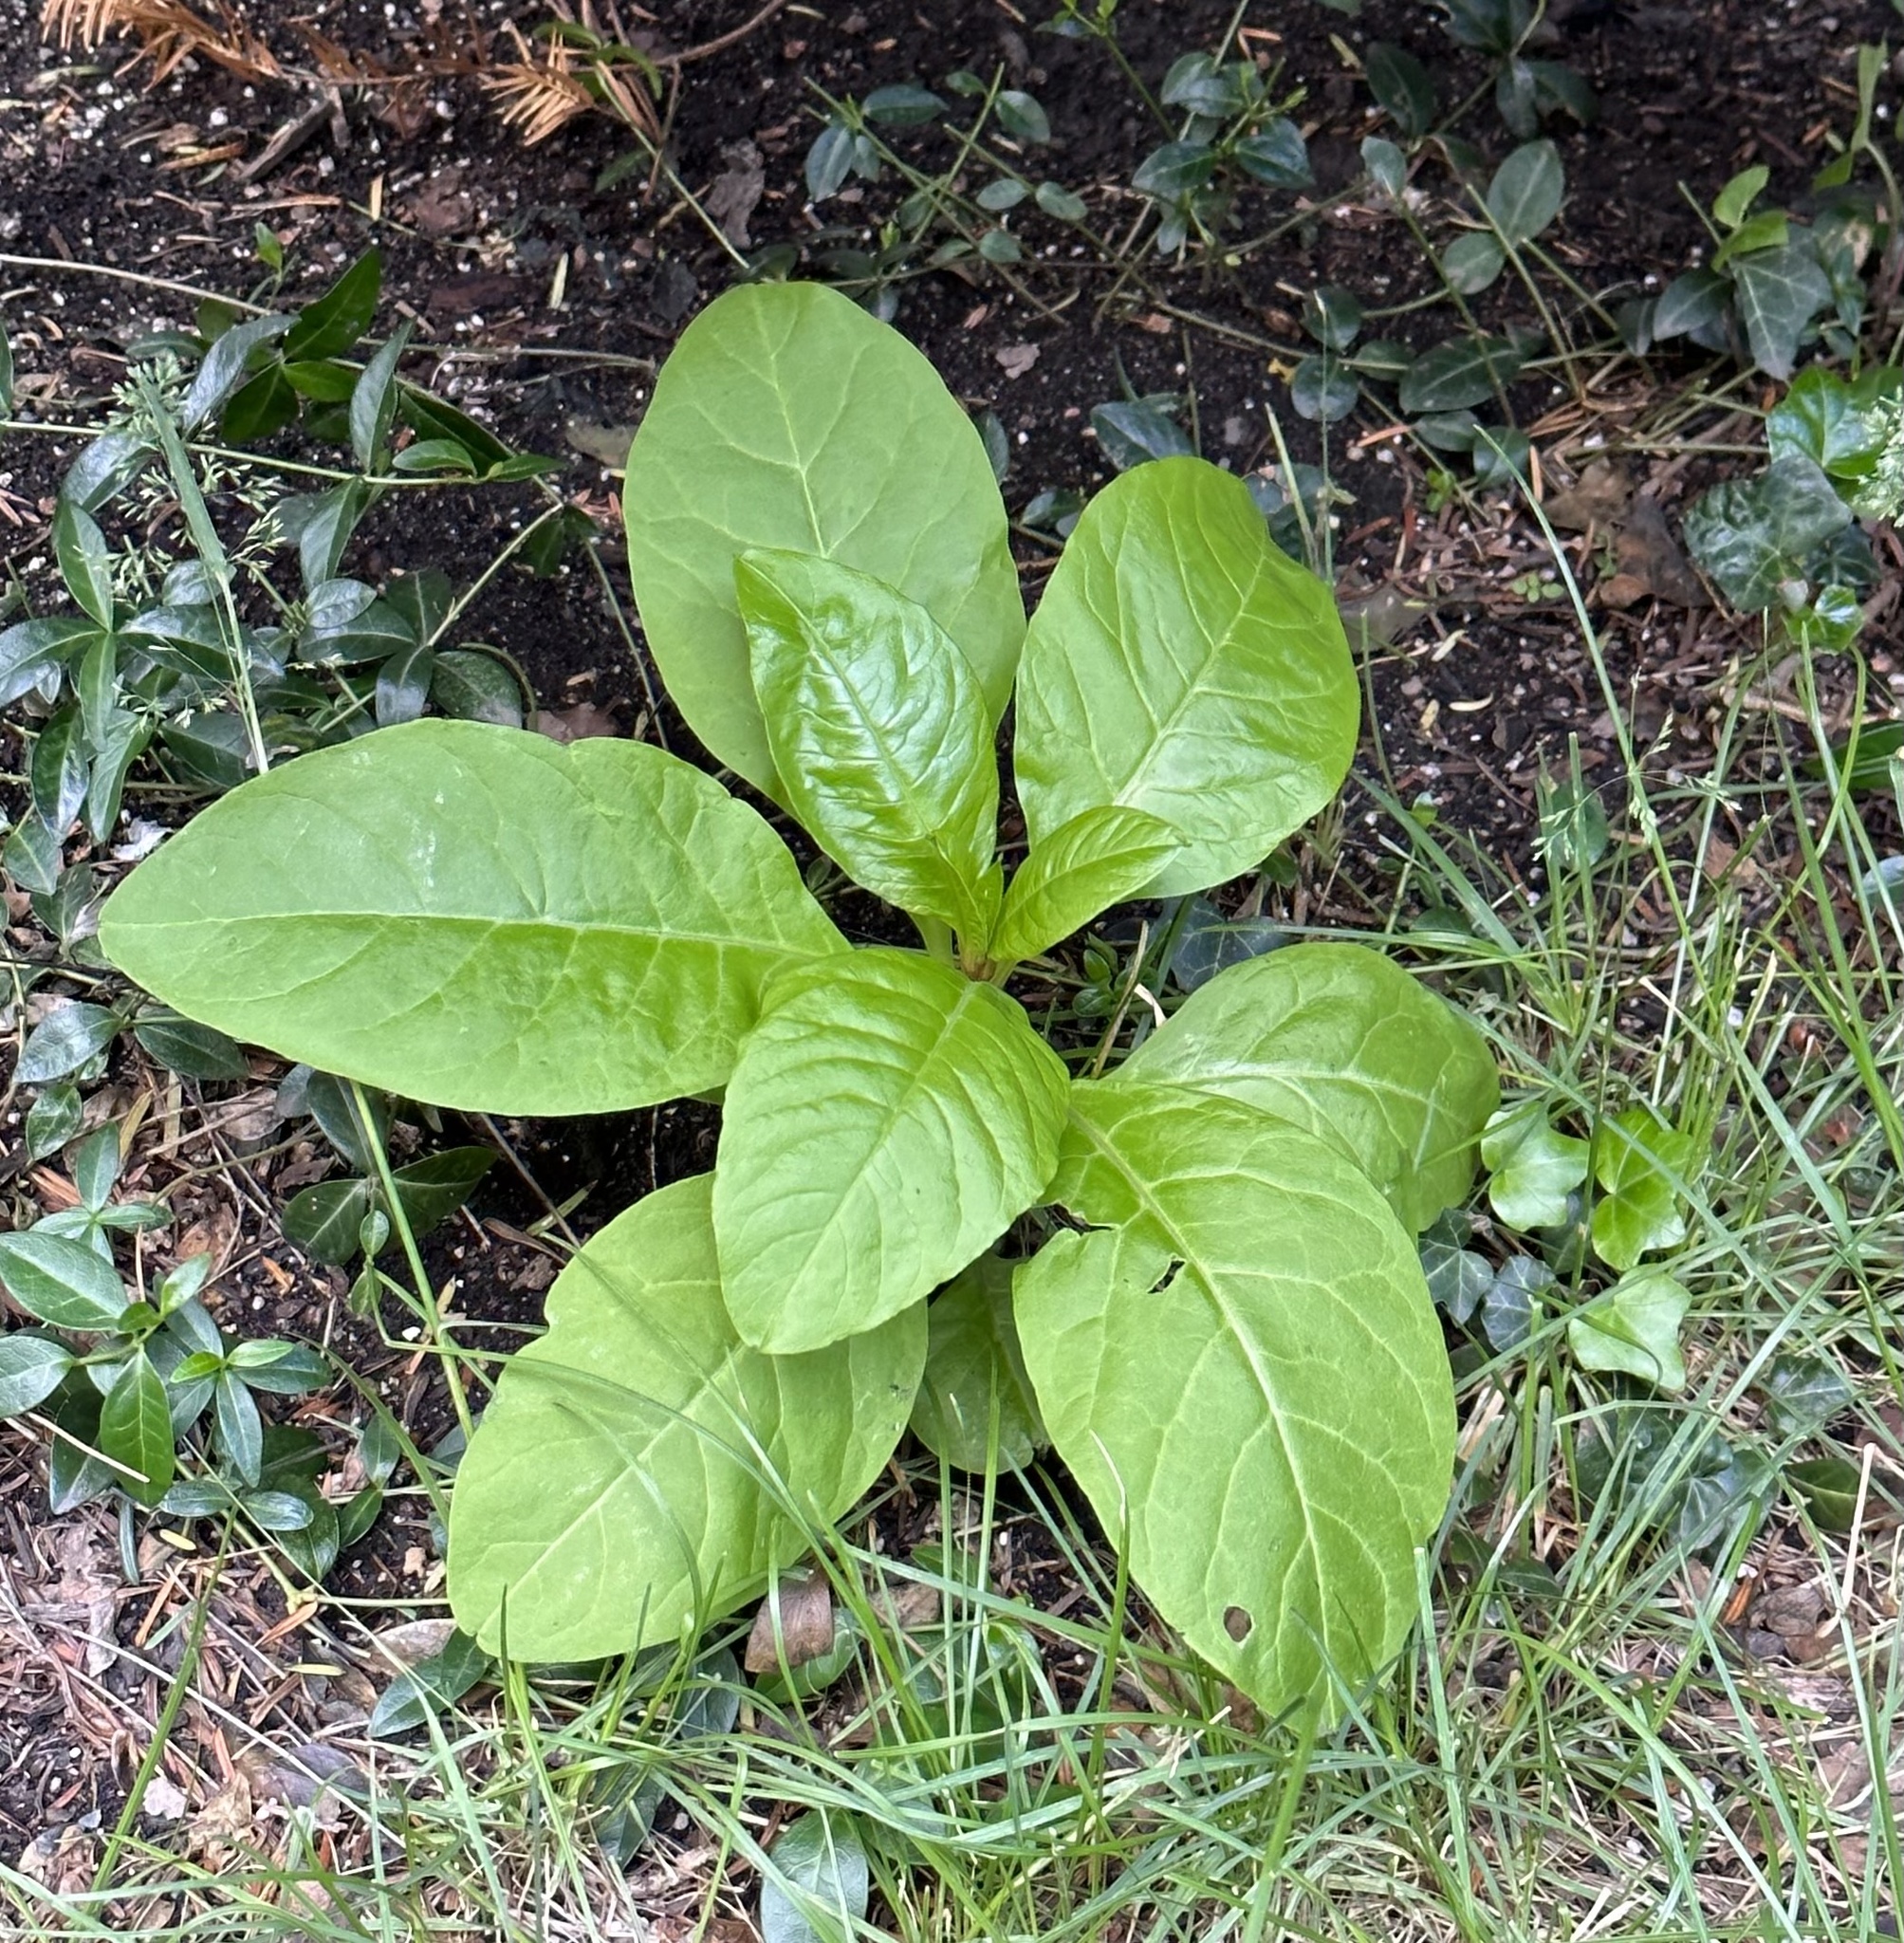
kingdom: Plantae
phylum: Tracheophyta
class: Magnoliopsida
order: Caryophyllales
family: Phytolaccaceae
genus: Phytolacca
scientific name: Phytolacca americana
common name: American pokeweed
